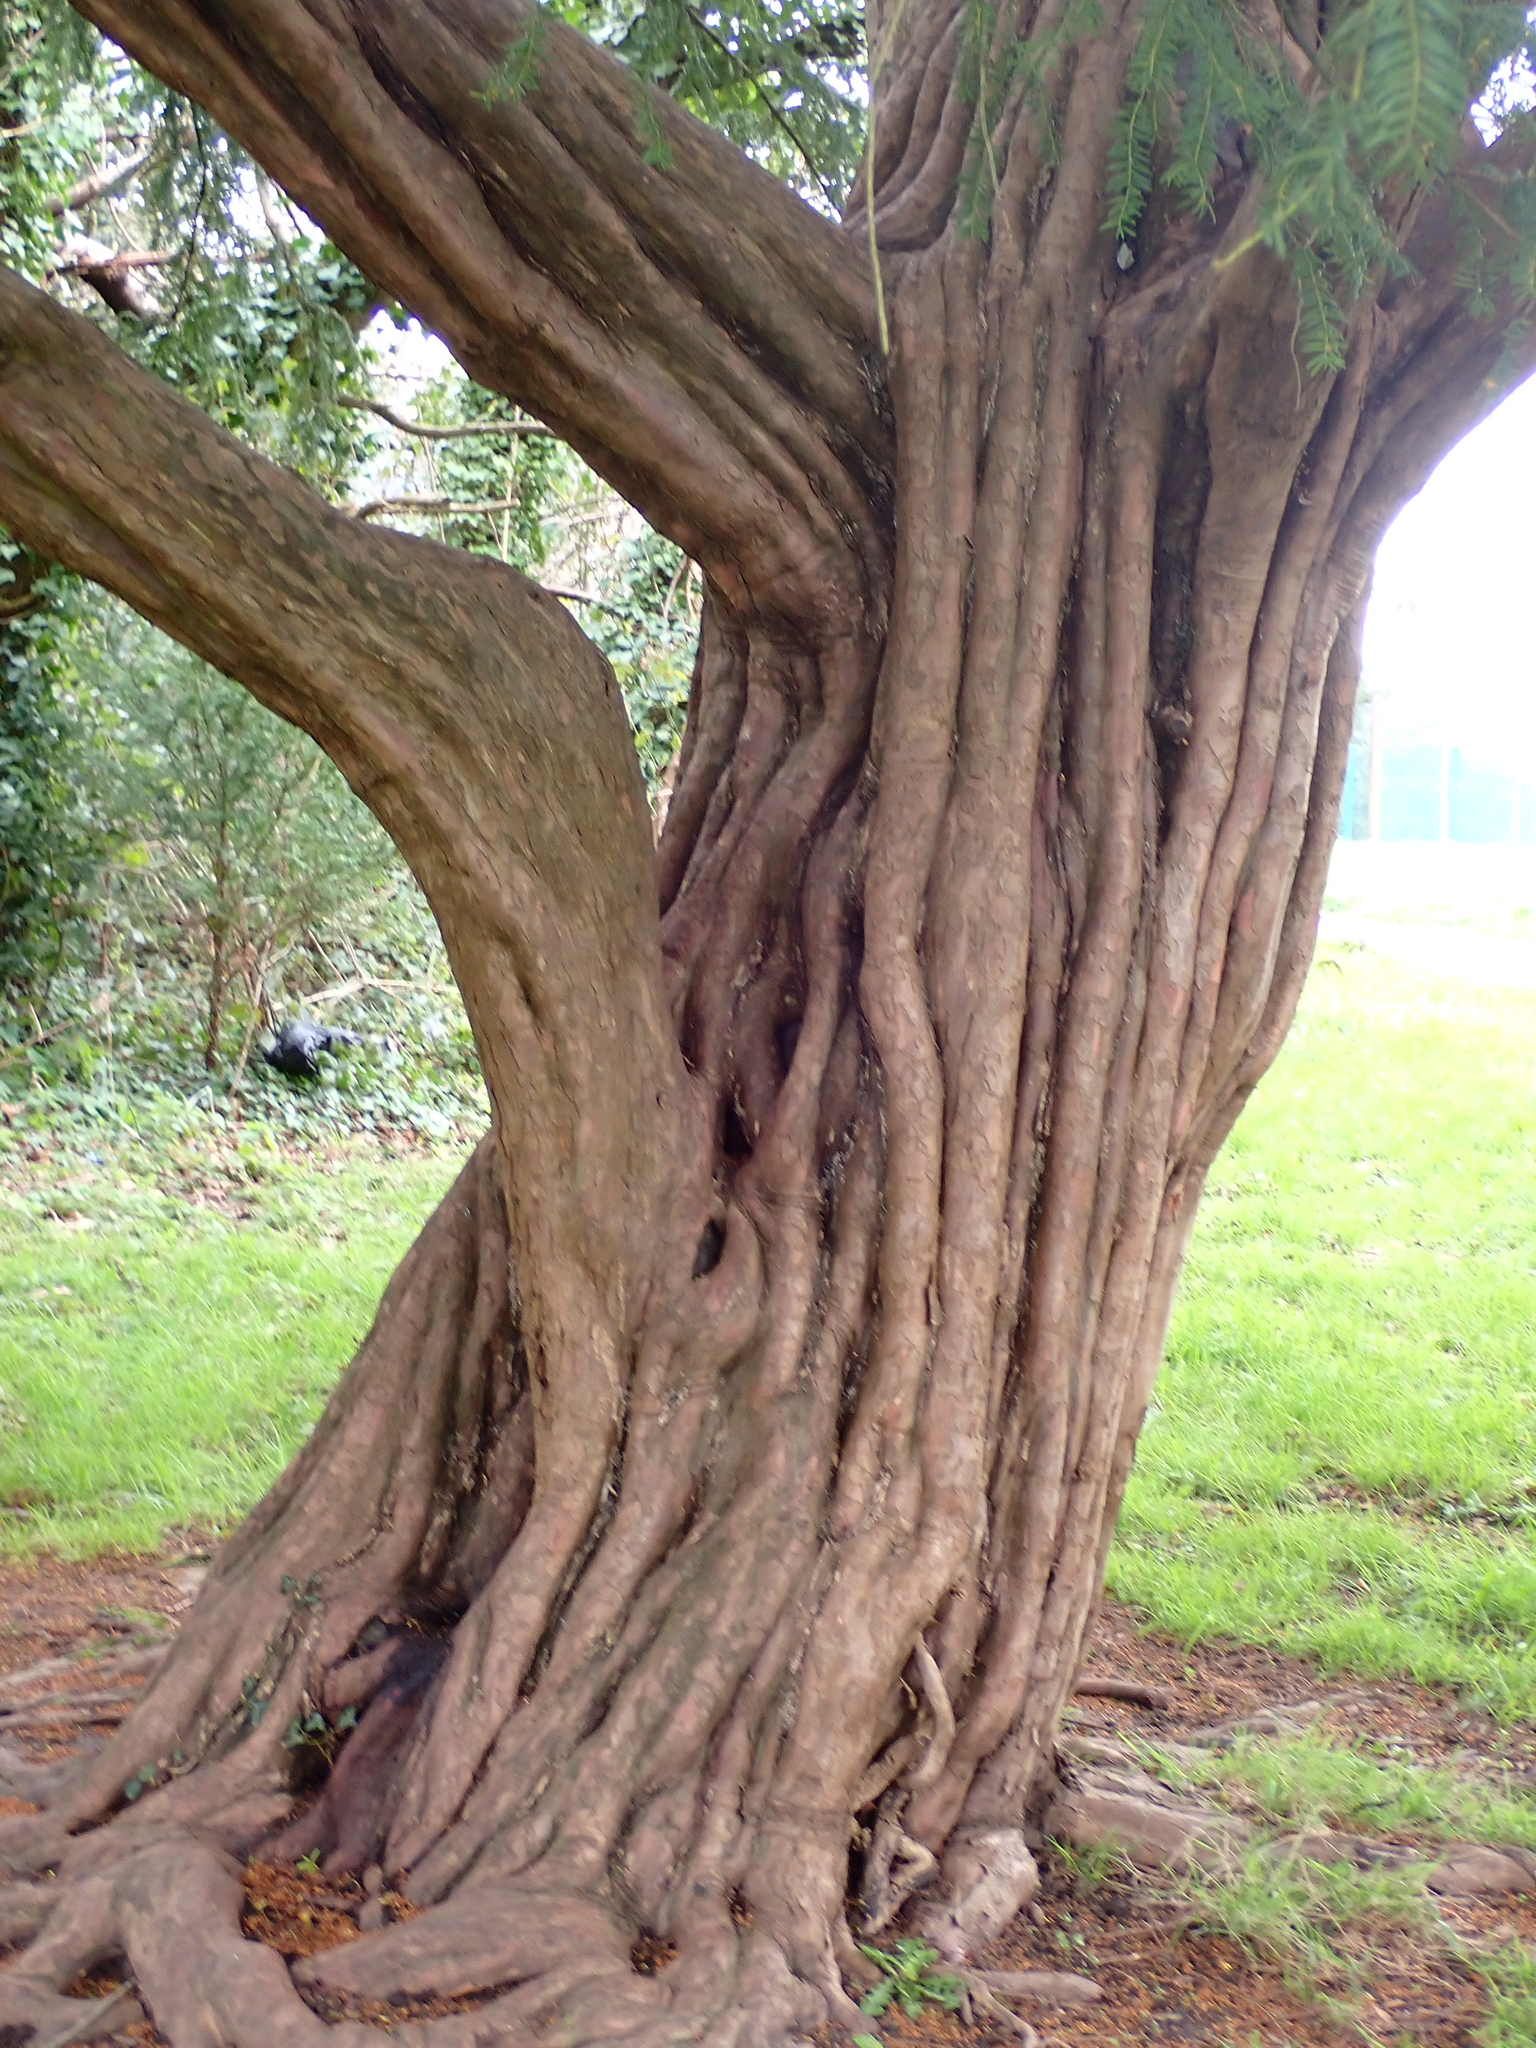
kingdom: Plantae
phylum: Tracheophyta
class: Pinopsida
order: Pinales
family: Taxaceae
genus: Taxus
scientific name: Taxus baccata
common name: Yew
